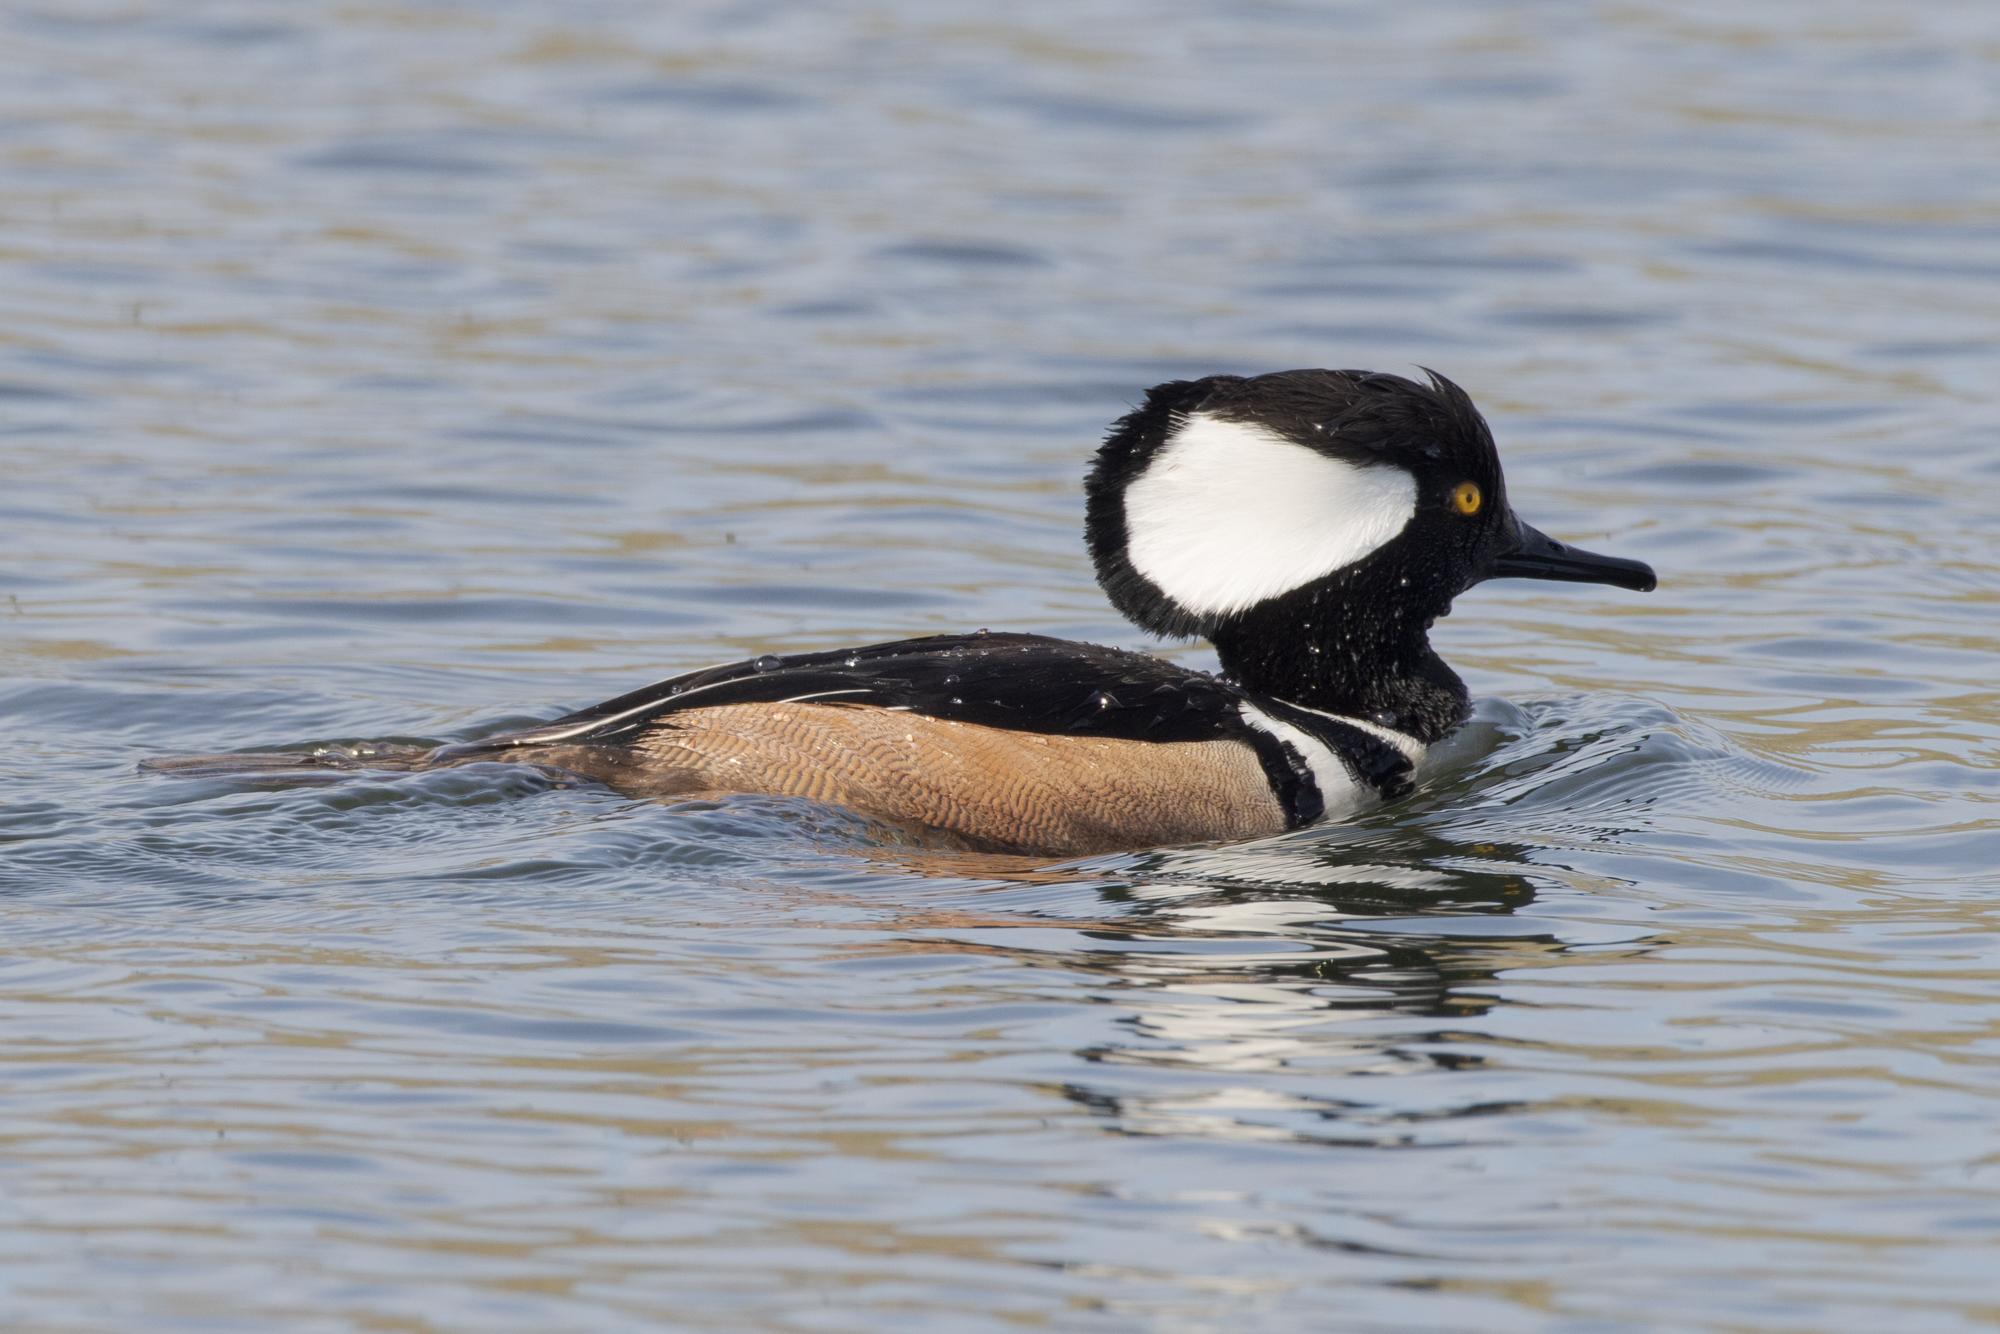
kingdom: Animalia
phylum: Chordata
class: Aves
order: Anseriformes
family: Anatidae
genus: Lophodytes
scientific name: Lophodytes cucullatus
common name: Hooded merganser
